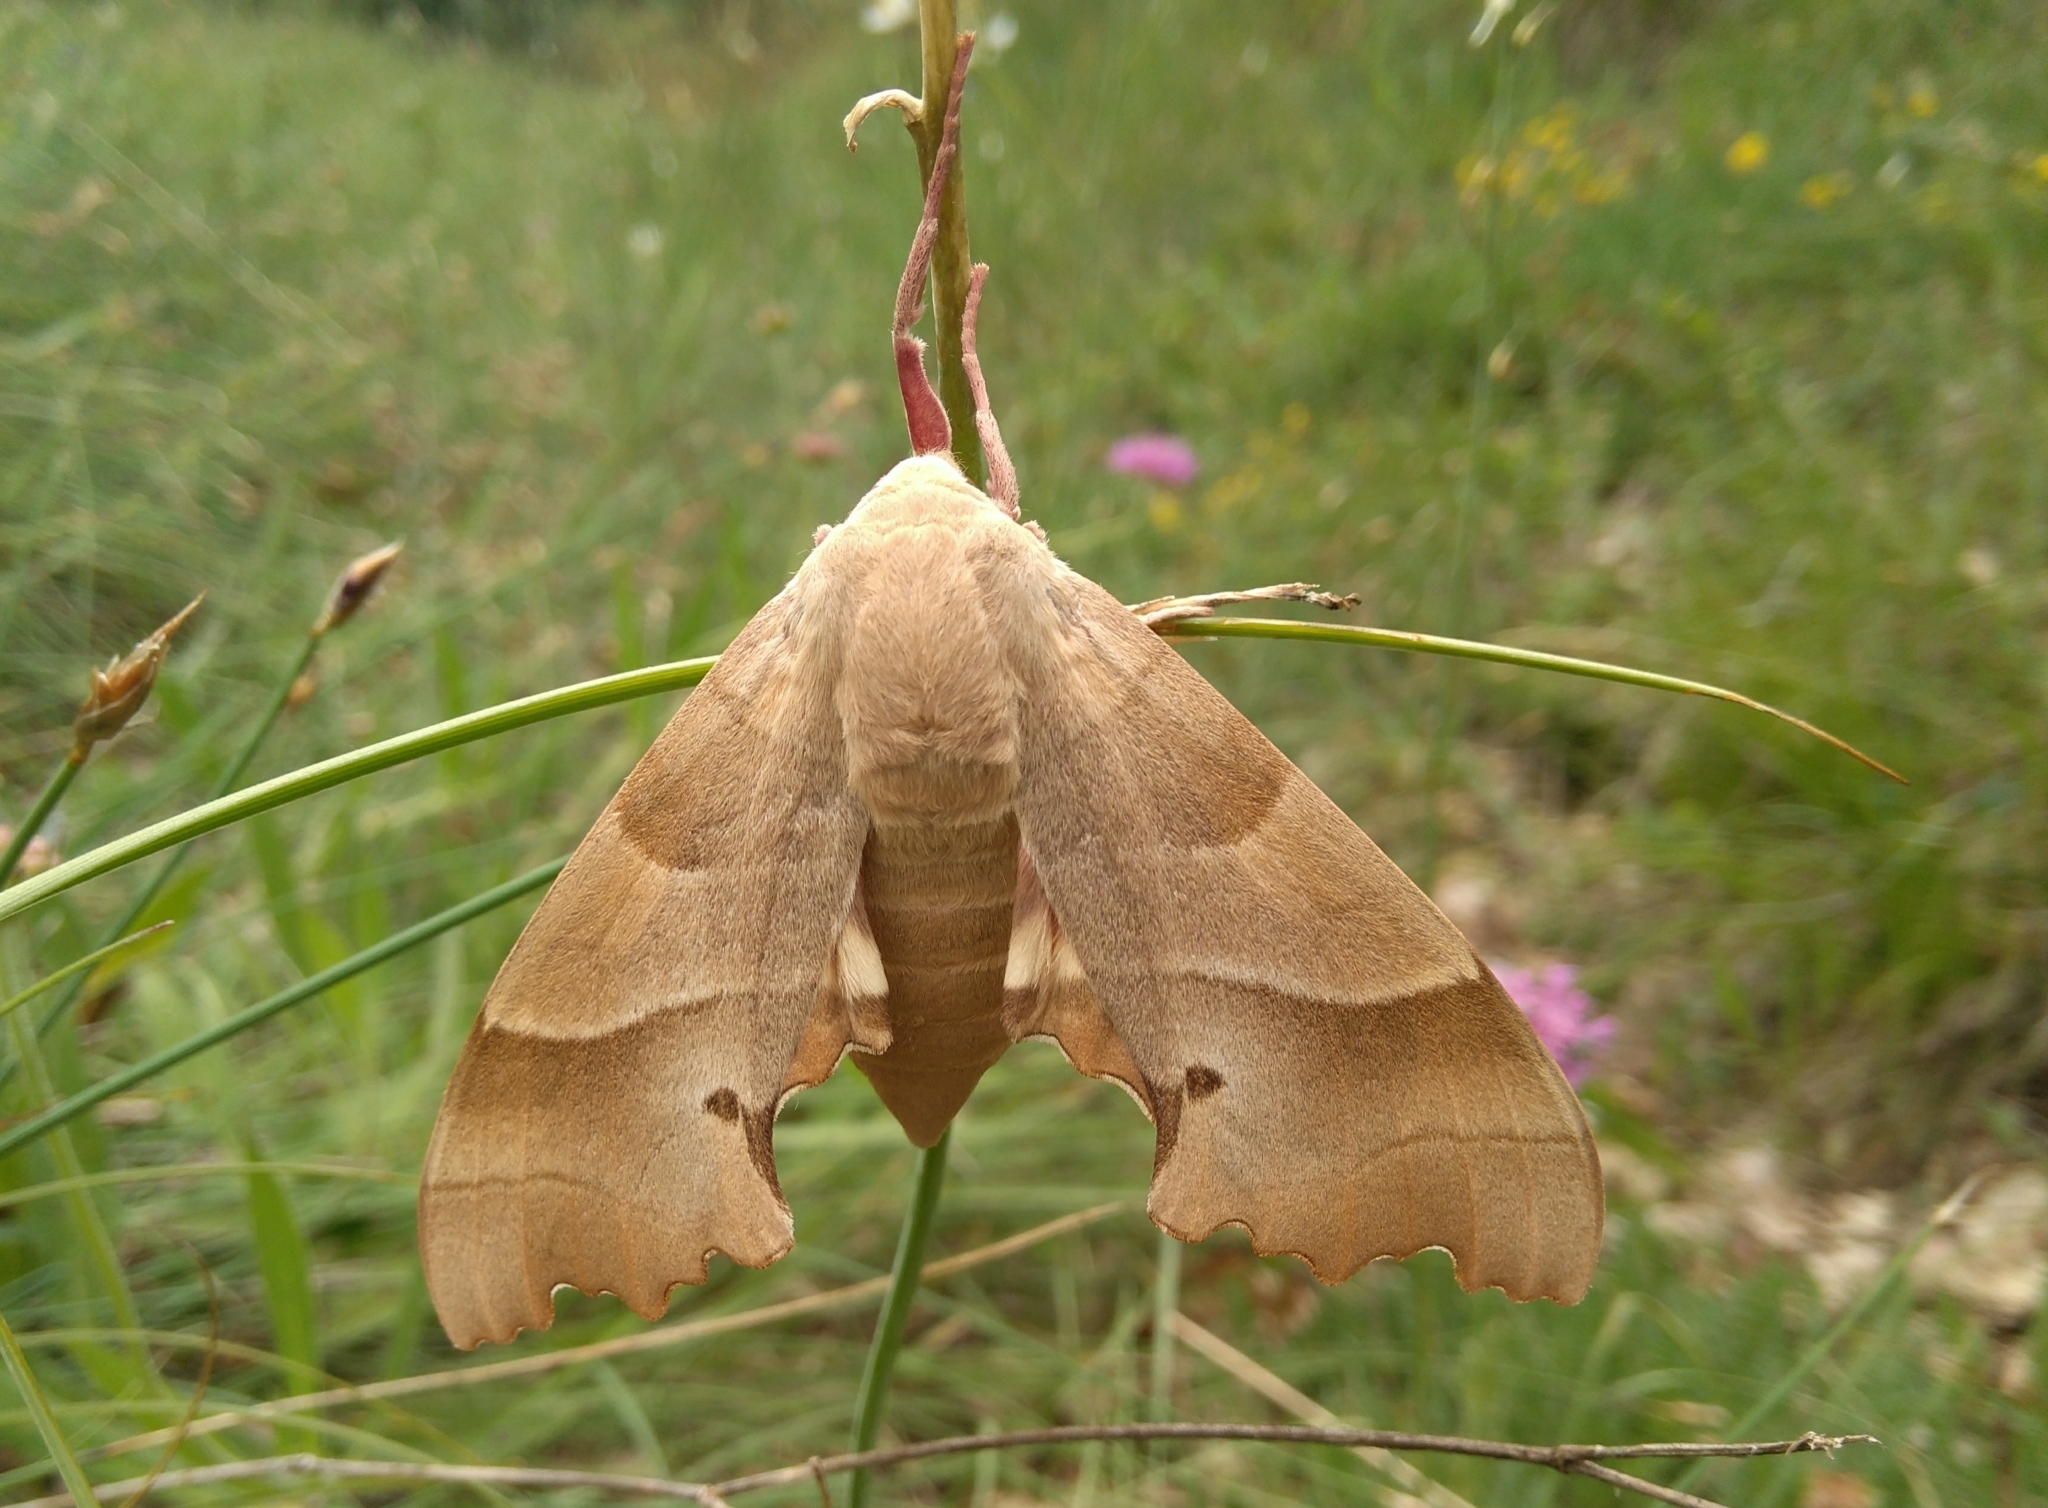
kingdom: Animalia
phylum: Arthropoda
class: Insecta
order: Lepidoptera
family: Sphingidae
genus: Marumba
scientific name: Marumba quercus
